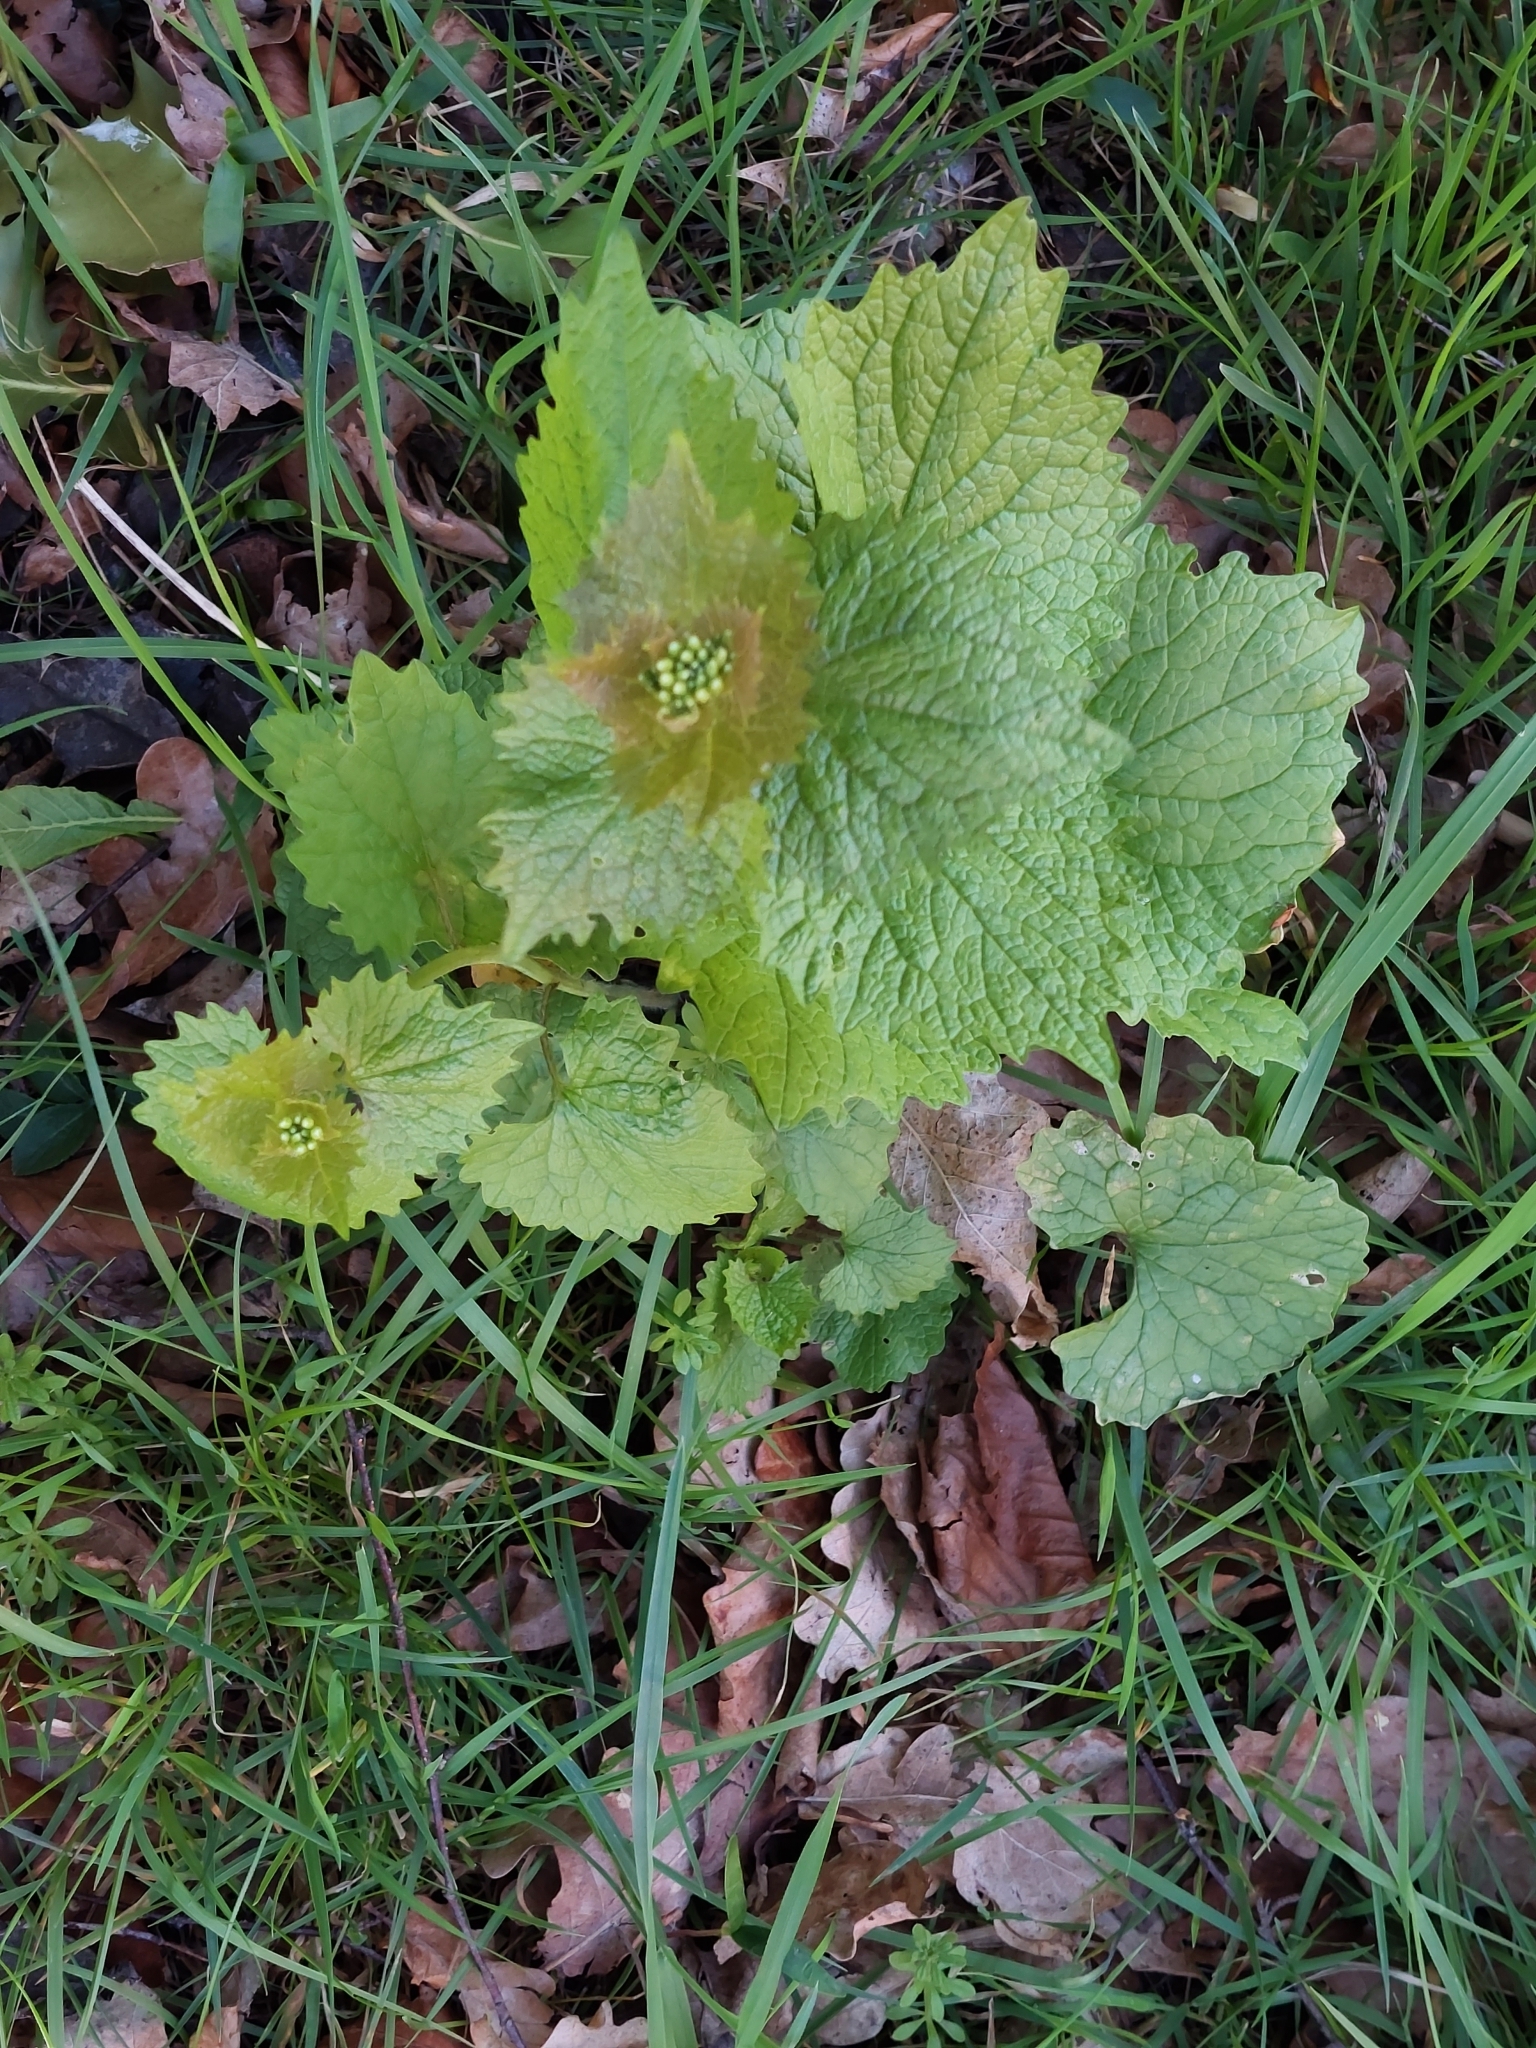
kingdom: Plantae
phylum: Tracheophyta
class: Magnoliopsida
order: Brassicales
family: Brassicaceae
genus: Alliaria
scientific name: Alliaria petiolata
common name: Garlic mustard
